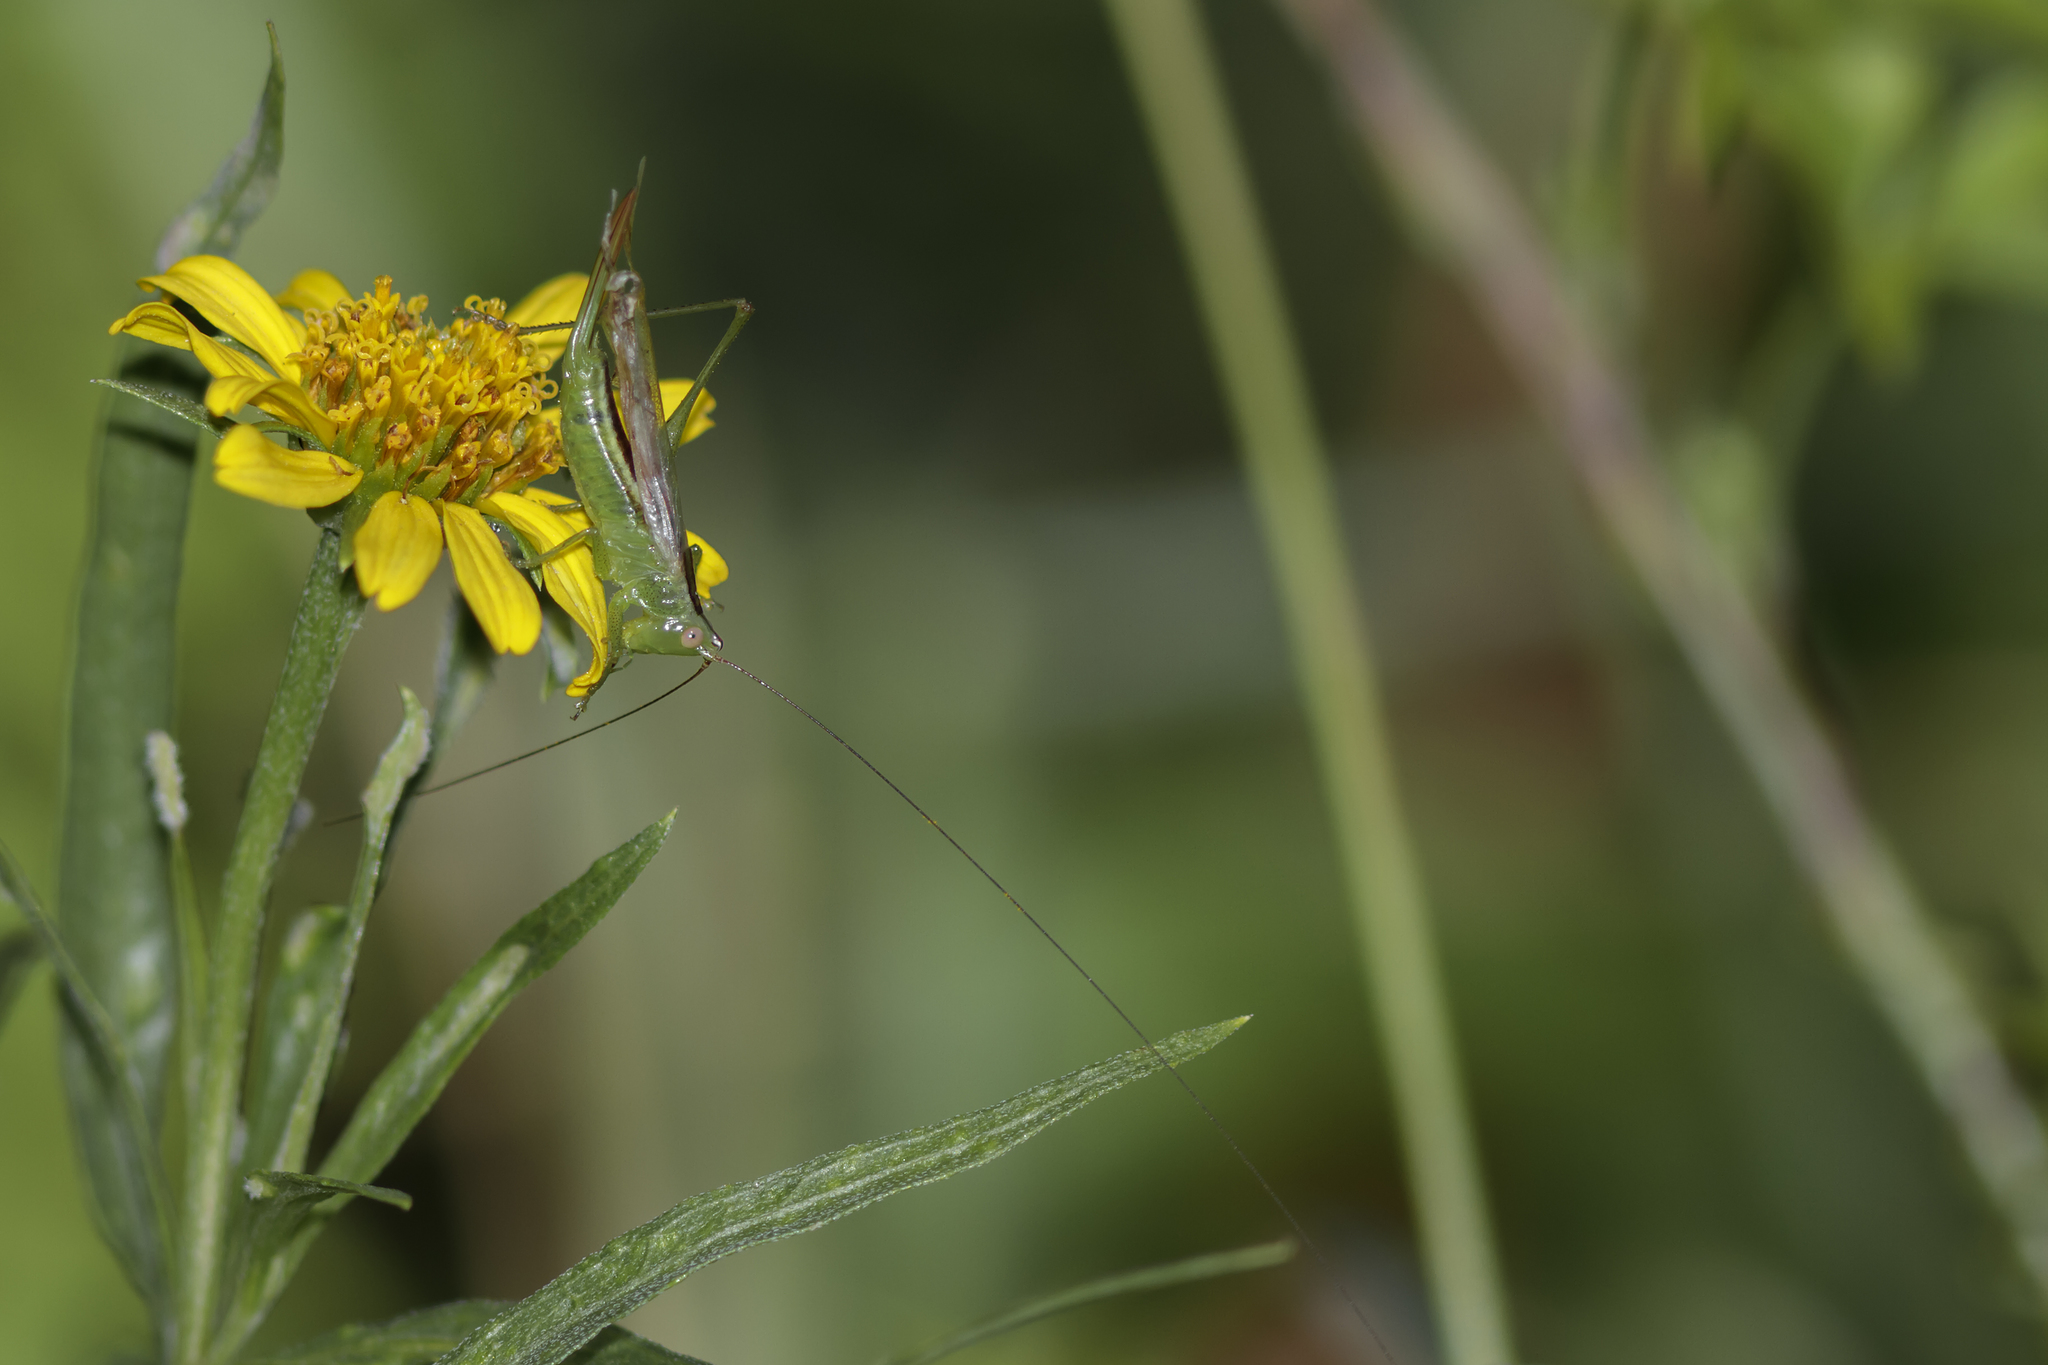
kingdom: Animalia
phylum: Arthropoda
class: Insecta
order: Orthoptera
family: Tettigoniidae
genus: Conocephalus
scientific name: Conocephalus longipes
